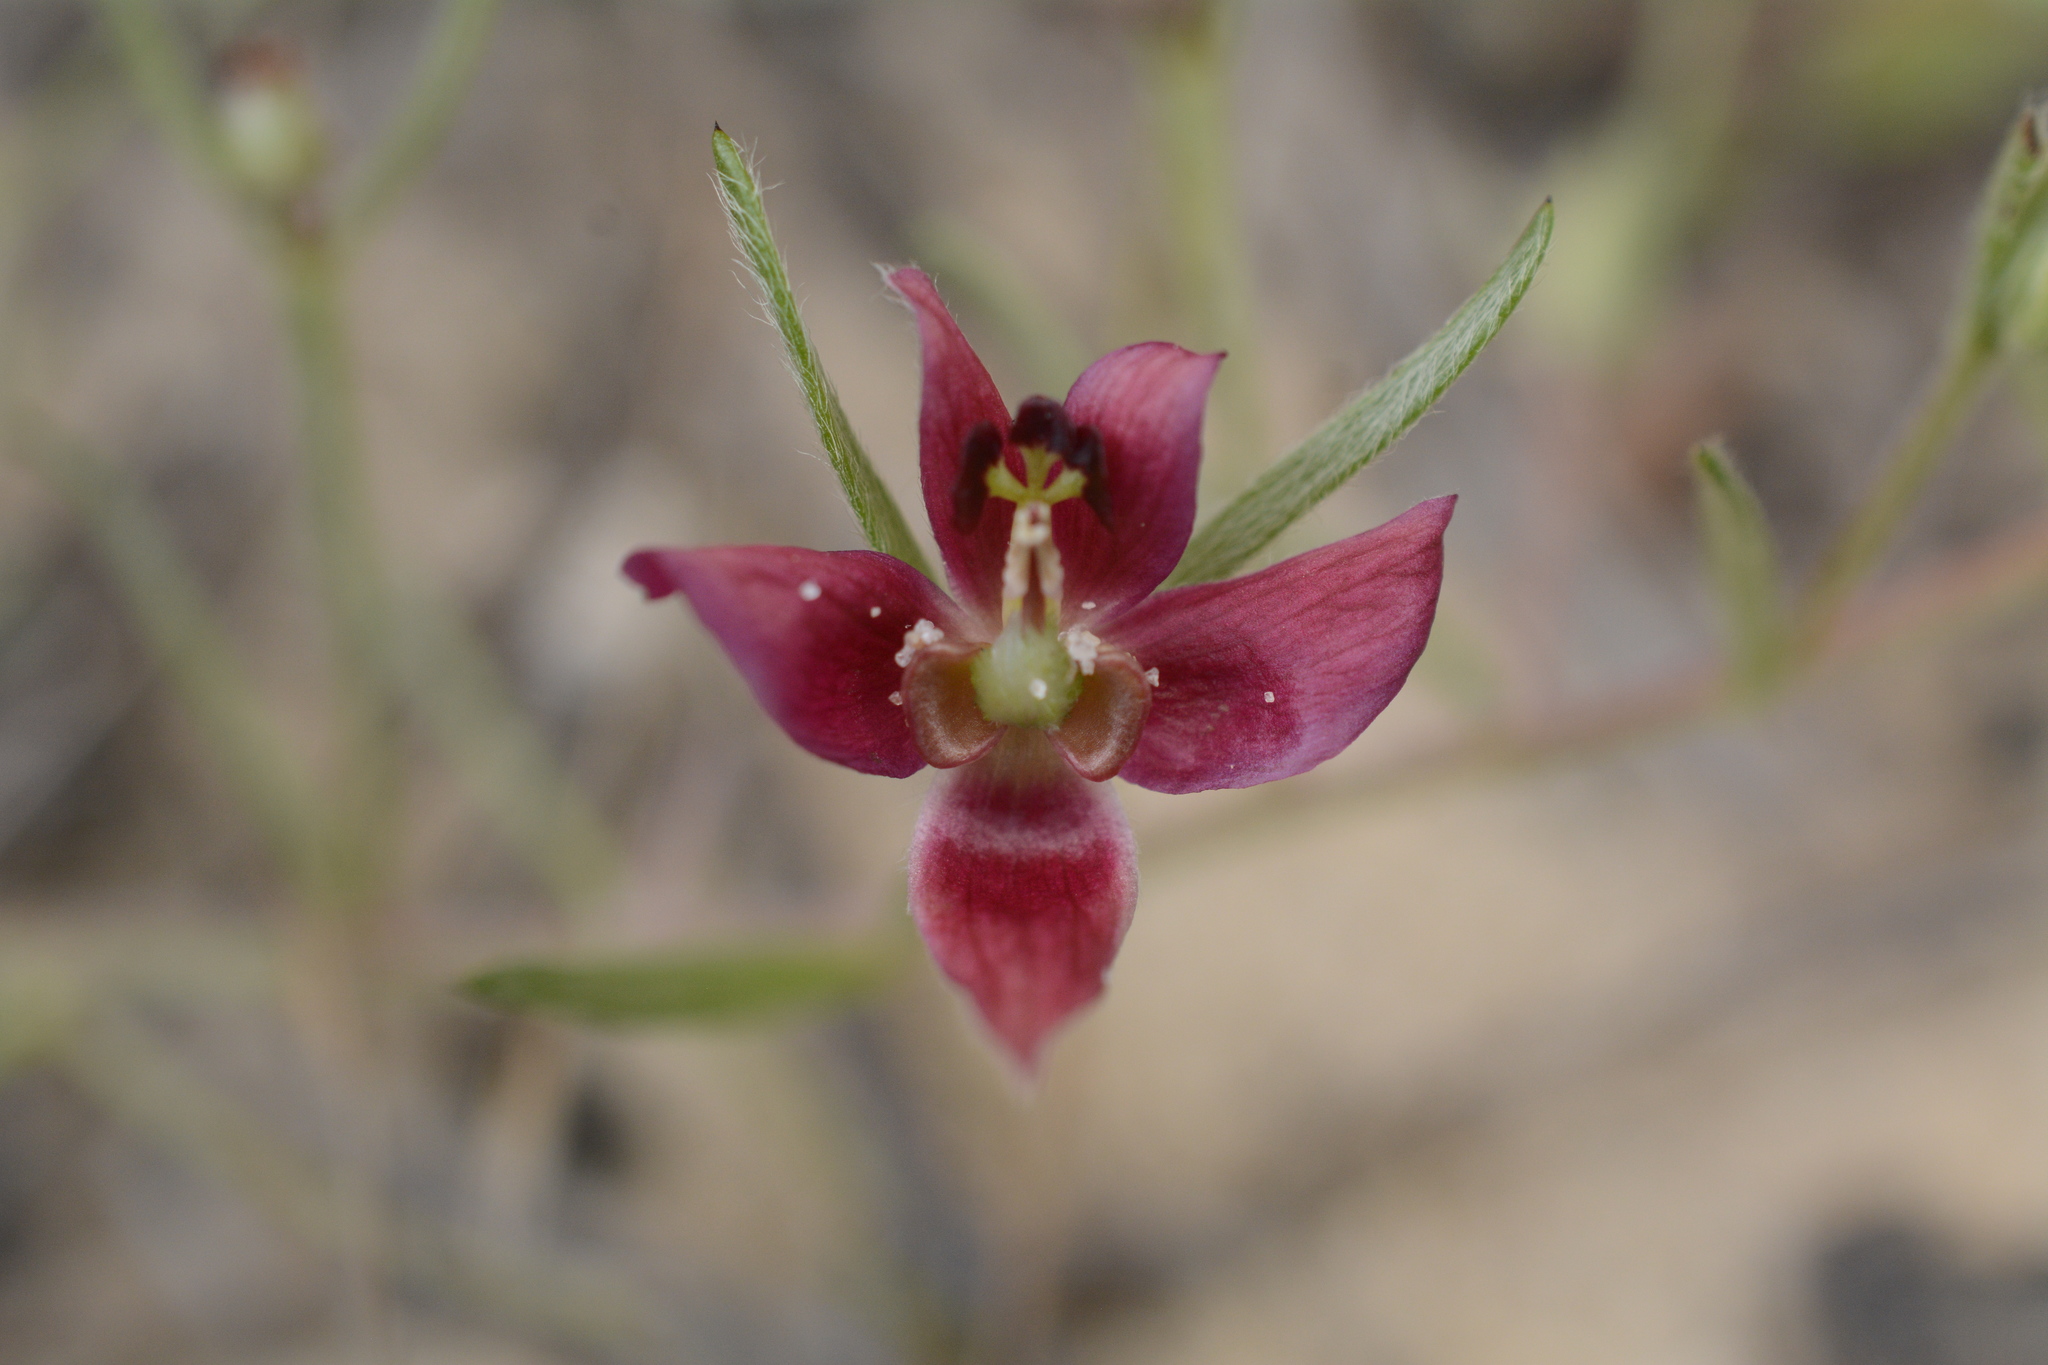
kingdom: Plantae
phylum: Tracheophyta
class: Magnoliopsida
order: Zygophyllales
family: Krameriaceae
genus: Krameria
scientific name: Krameria lanceolata
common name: Ratany
